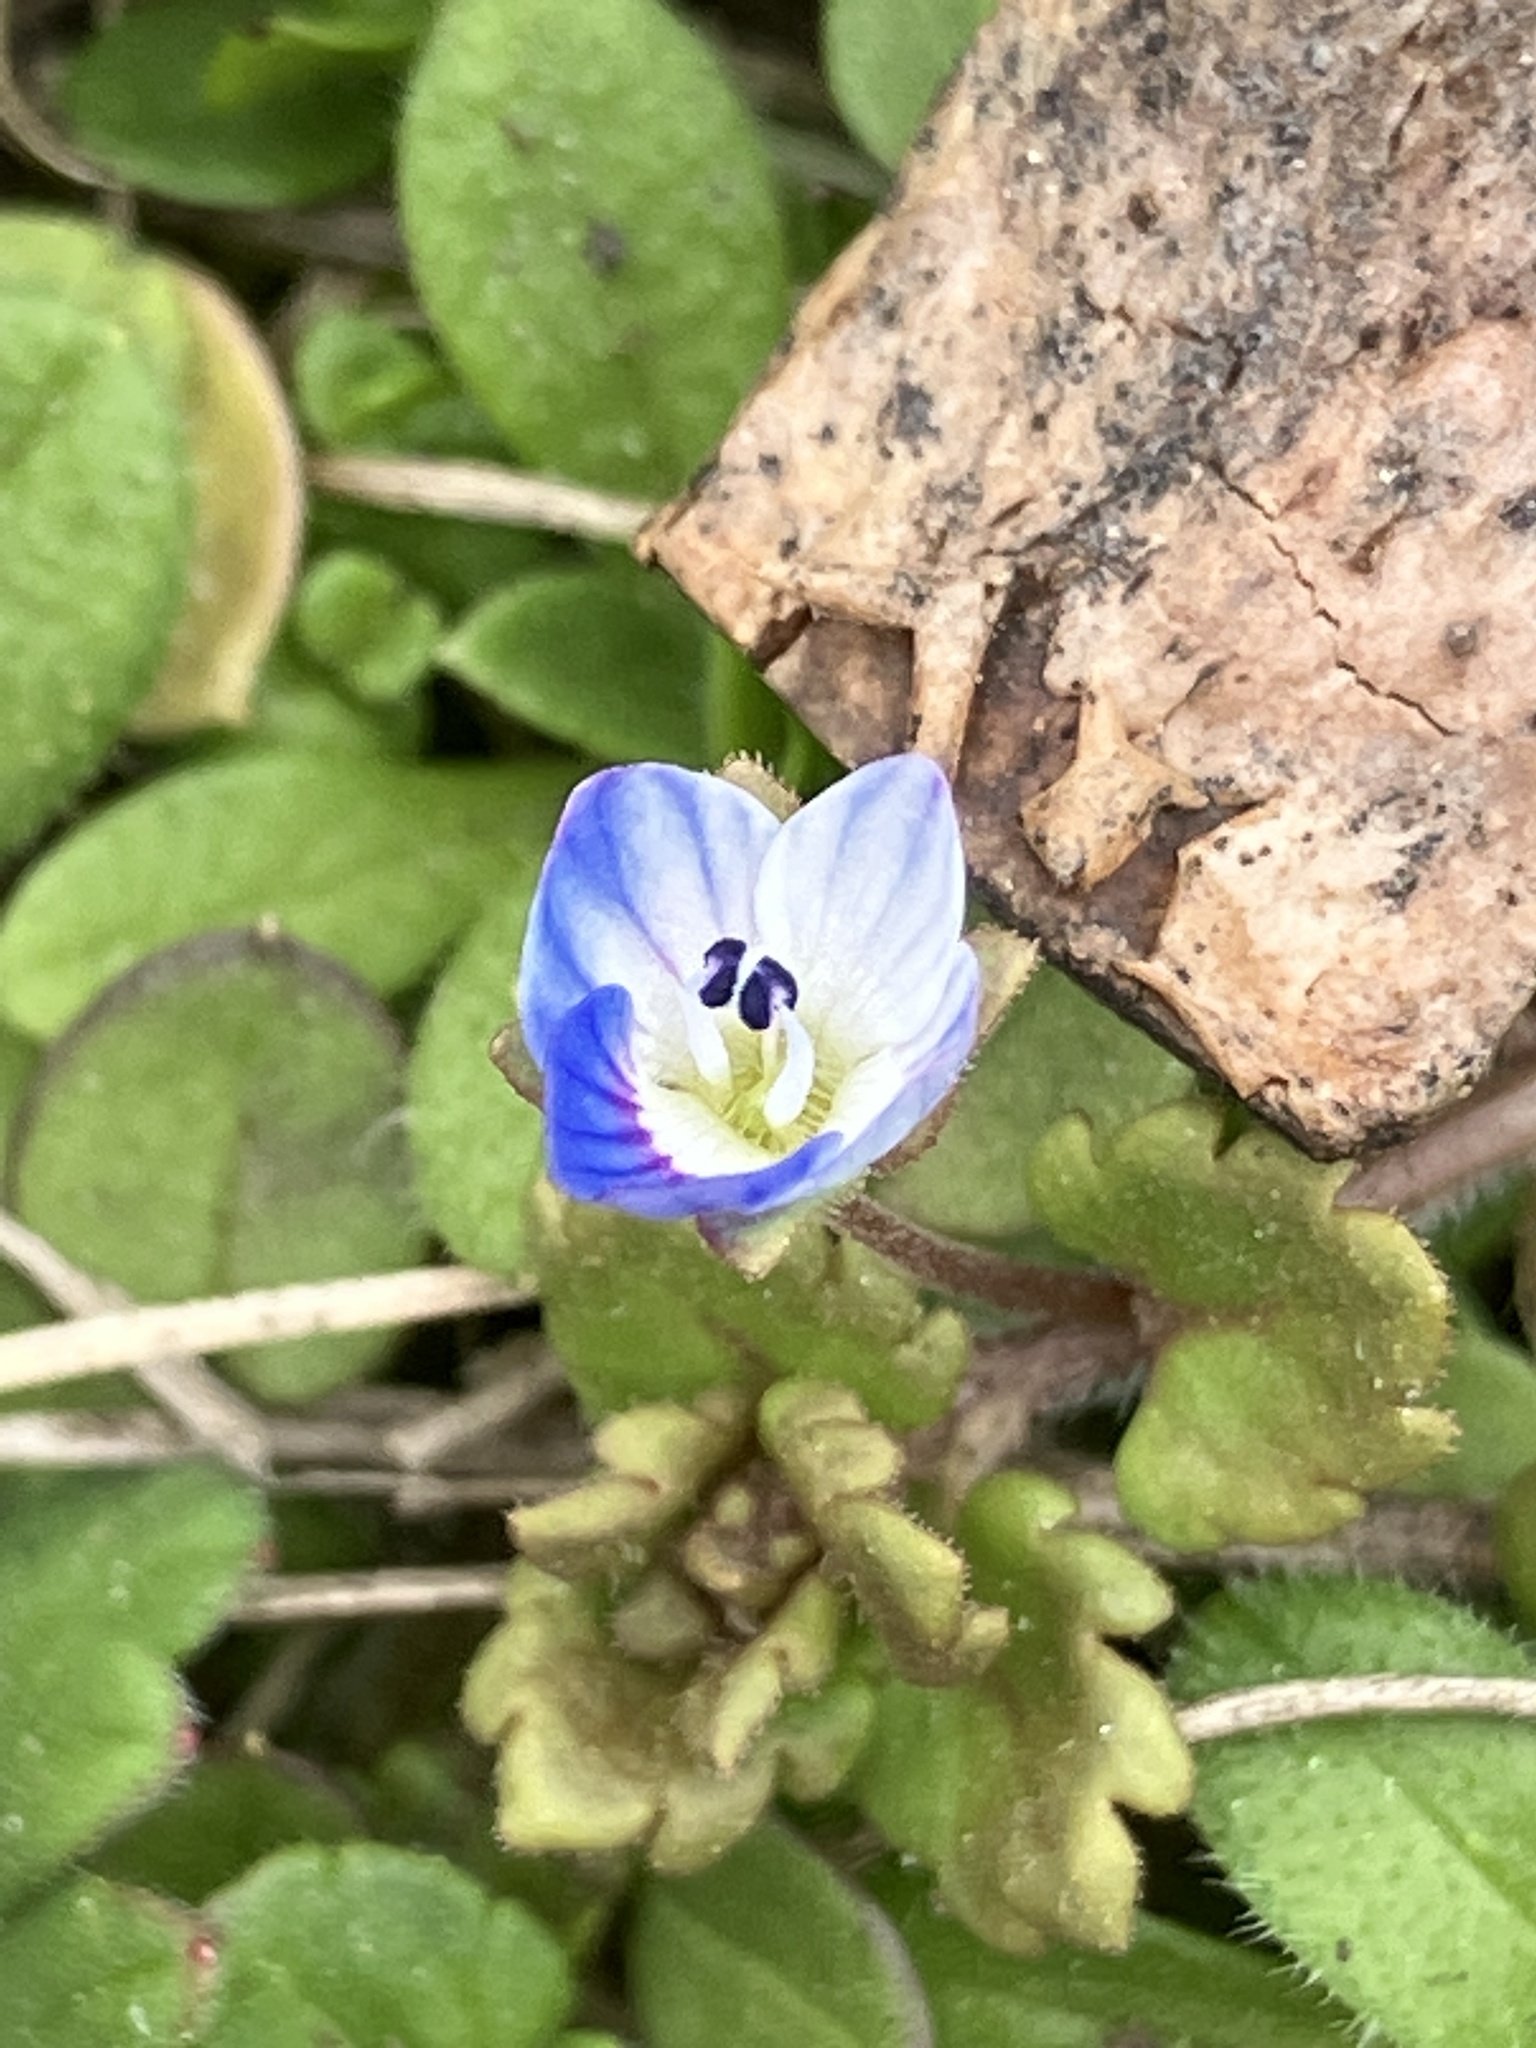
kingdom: Plantae
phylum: Tracheophyta
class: Magnoliopsida
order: Lamiales
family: Plantaginaceae
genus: Veronica
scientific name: Veronica polita
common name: Grey field-speedwell
